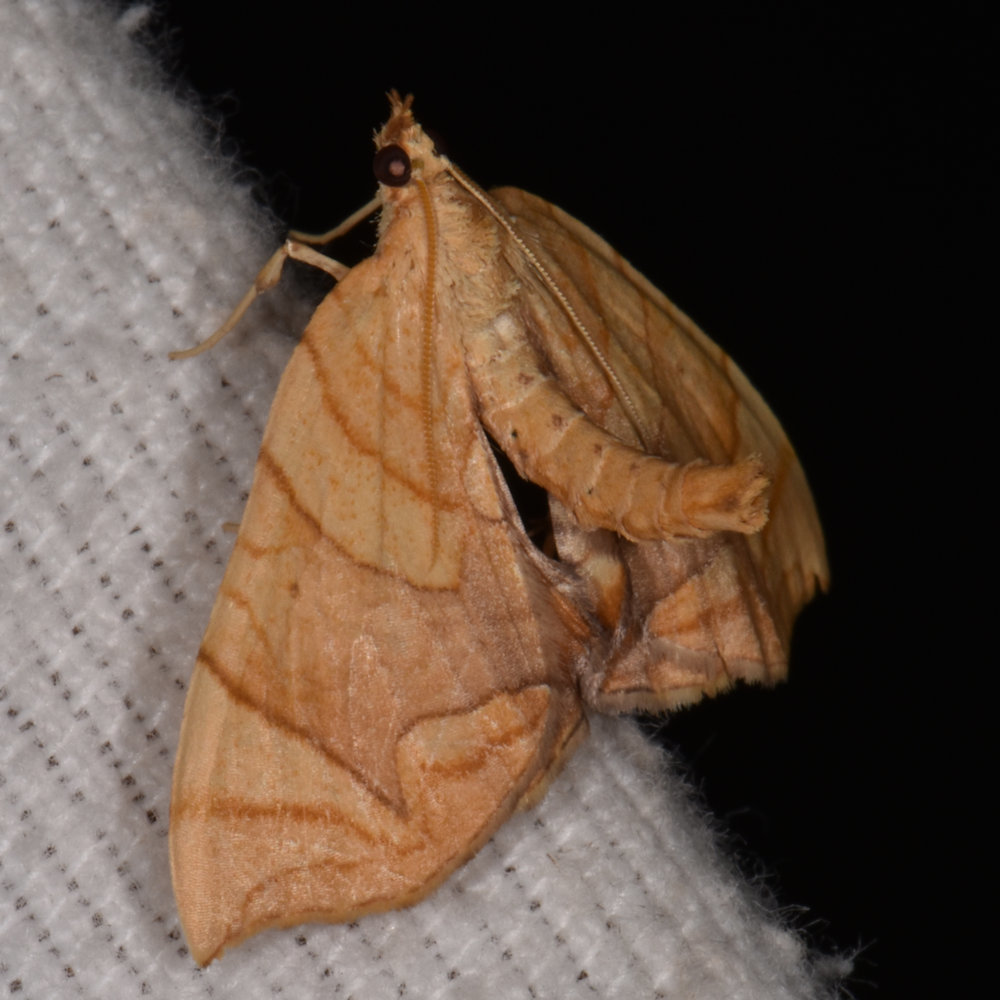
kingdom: Animalia
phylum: Arthropoda
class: Insecta
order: Lepidoptera
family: Geometridae
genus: Eulithis
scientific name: Eulithis
